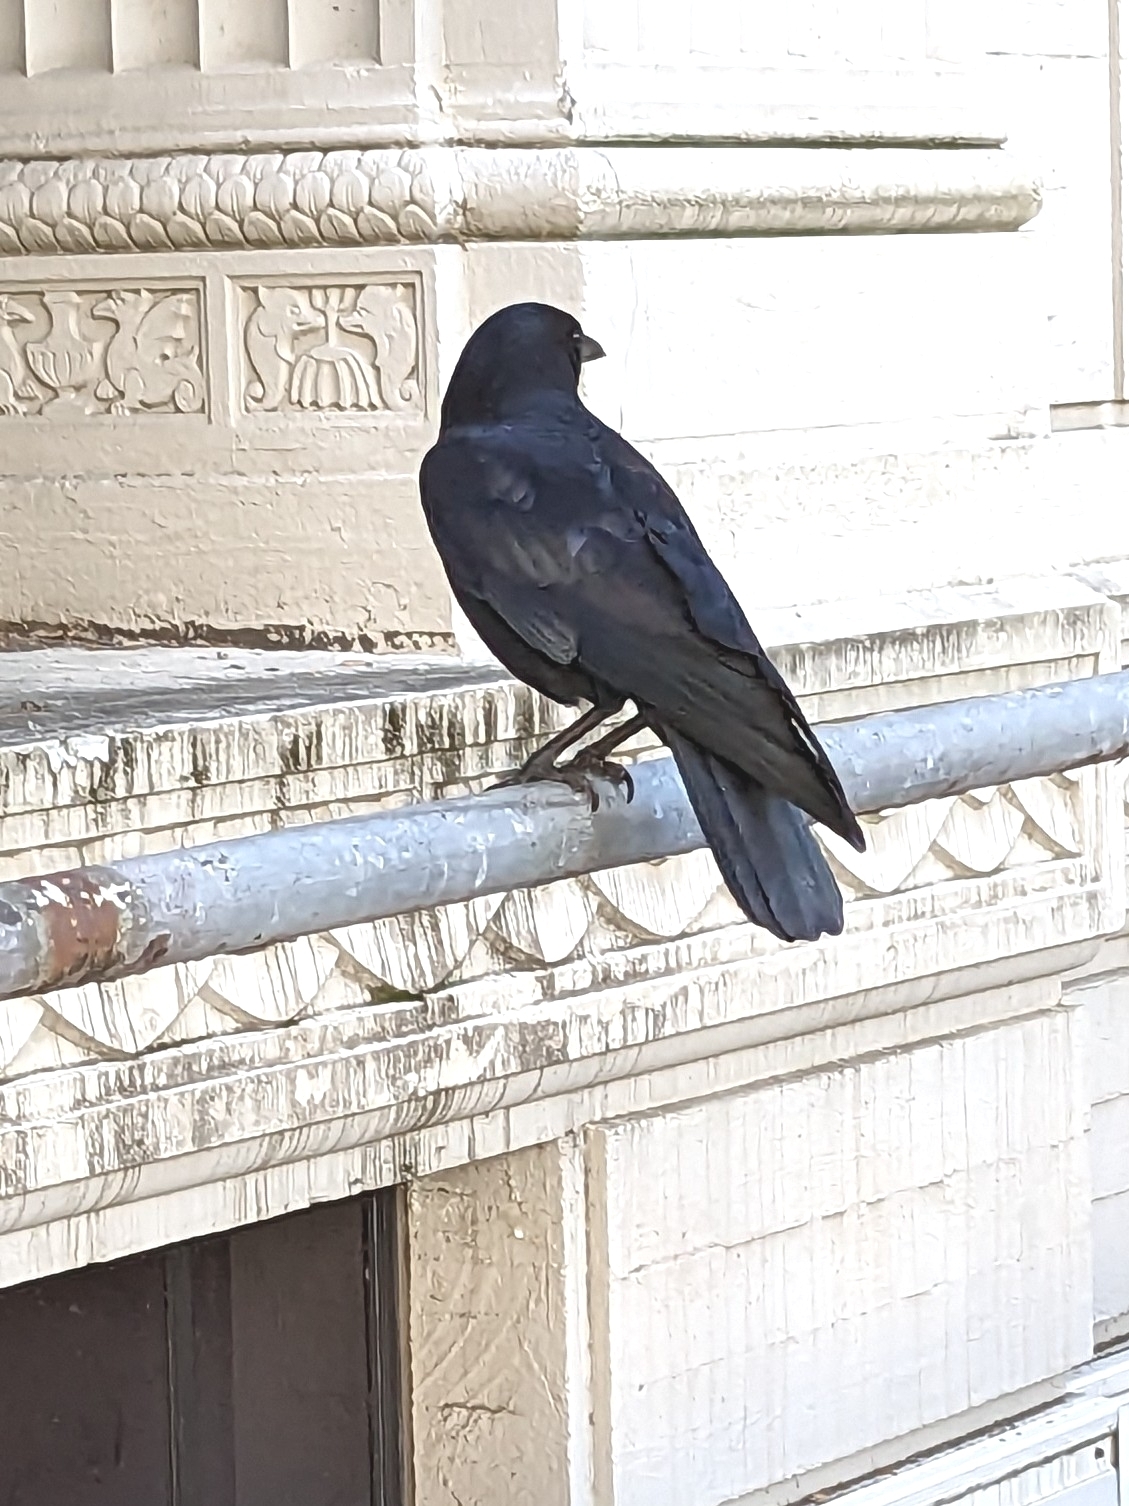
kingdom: Animalia
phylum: Chordata
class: Aves
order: Passeriformes
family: Corvidae
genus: Corvus
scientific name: Corvus brachyrhynchos
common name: American crow
